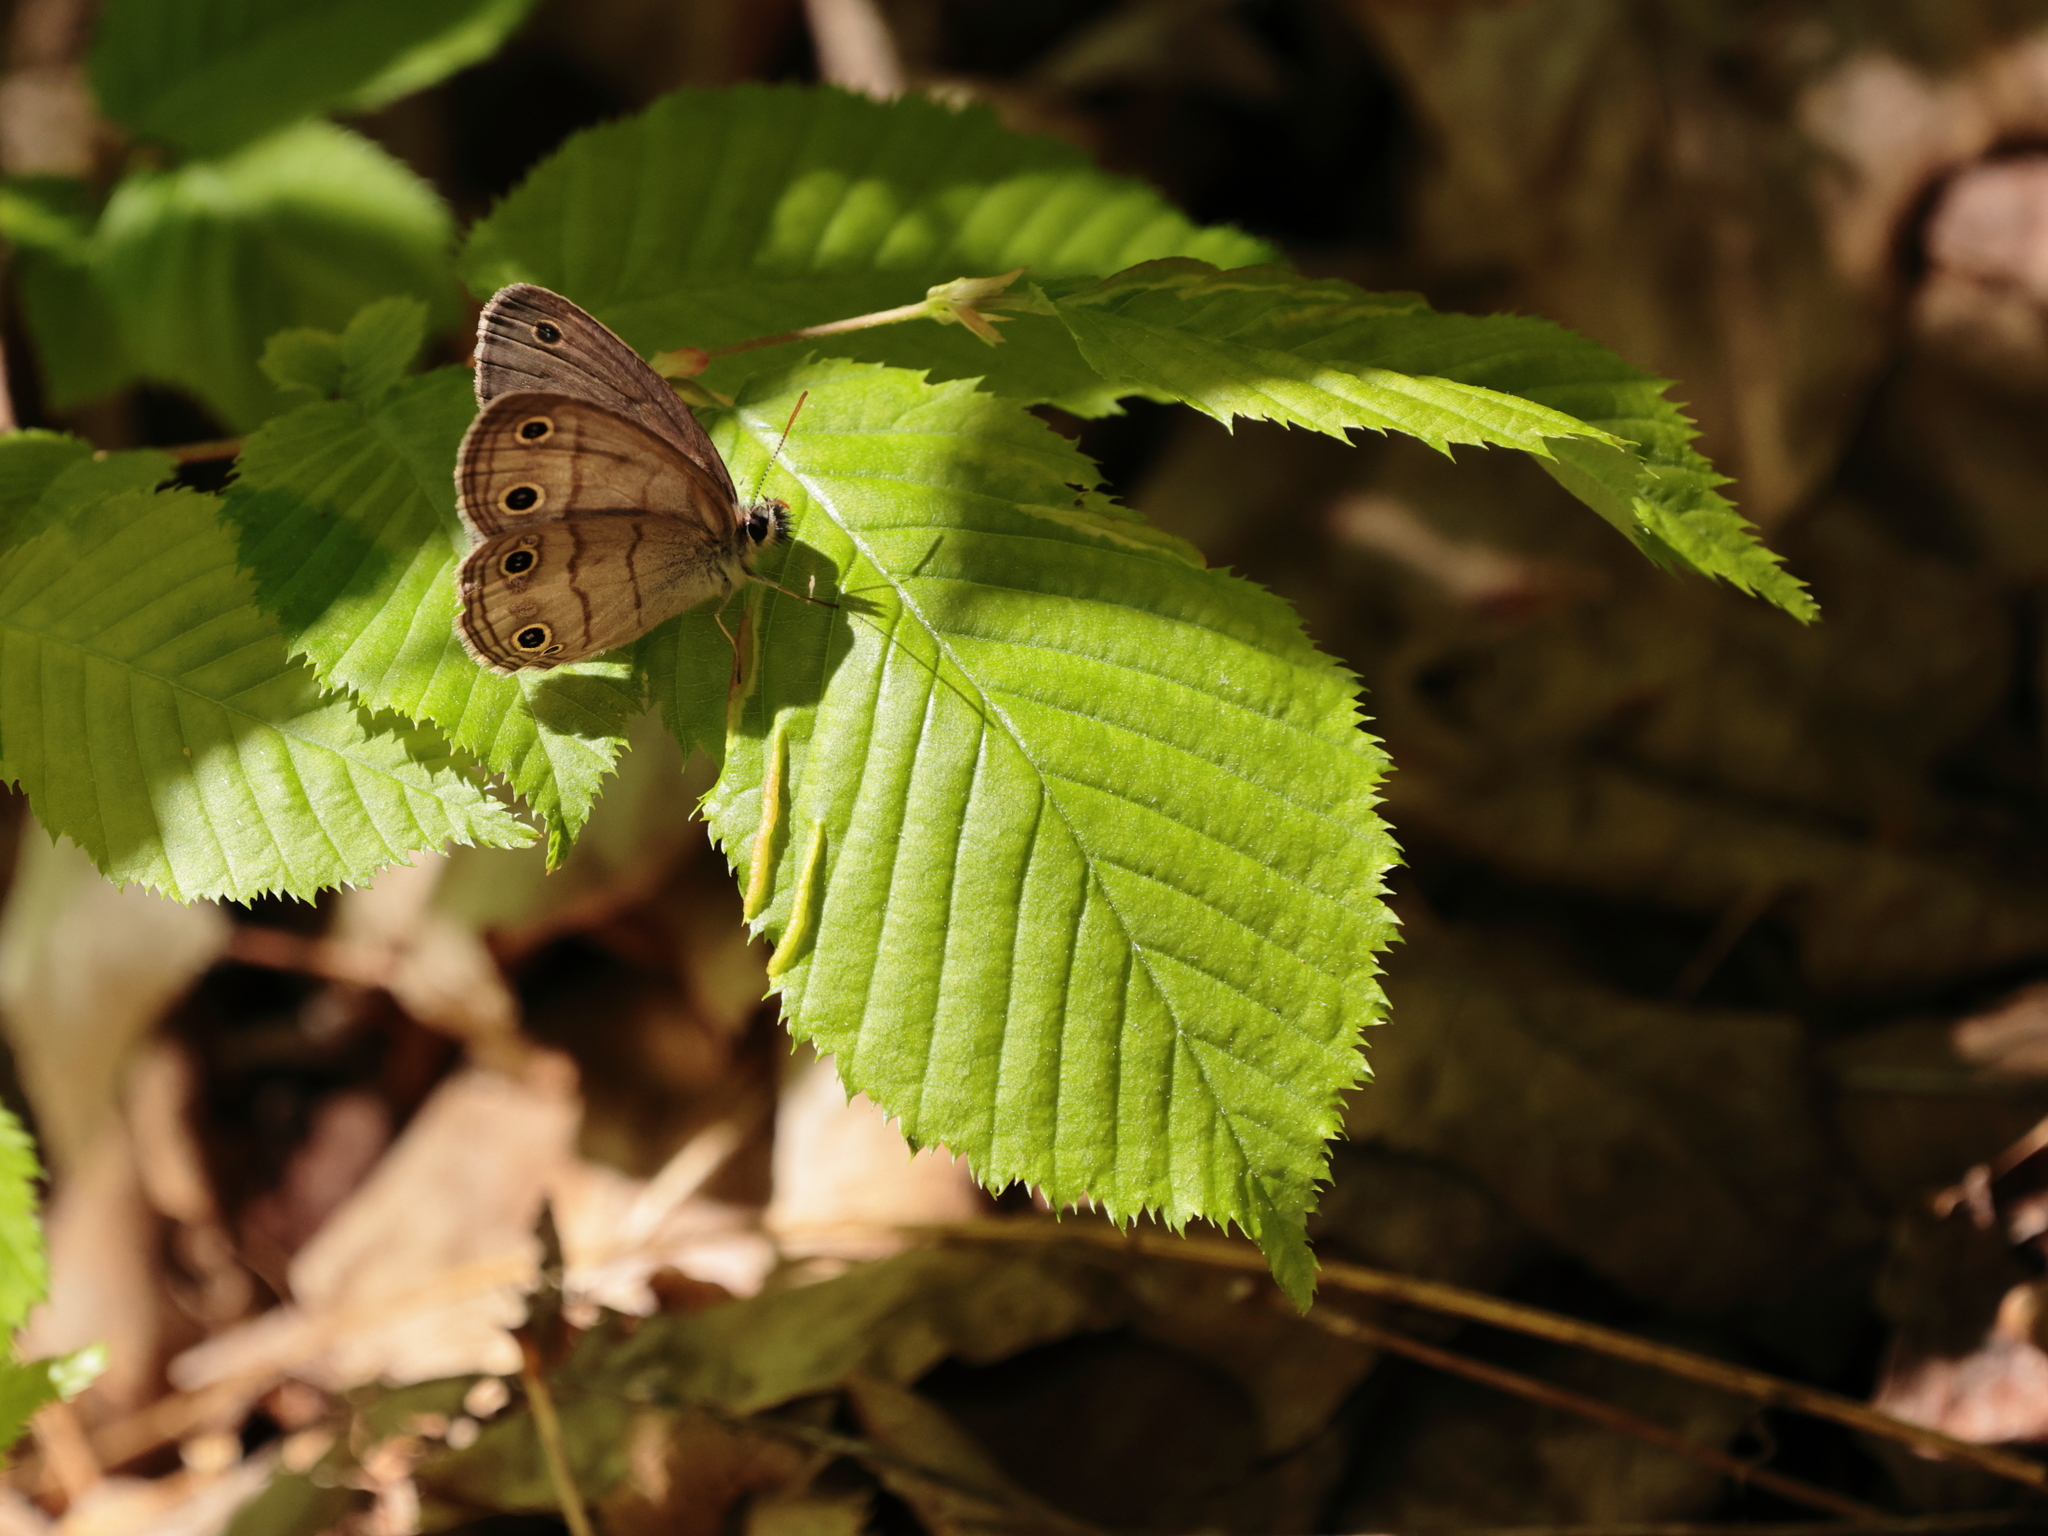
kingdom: Animalia
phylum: Arthropoda
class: Insecta
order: Lepidoptera
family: Nymphalidae
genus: Euptychia
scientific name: Euptychia cymela
